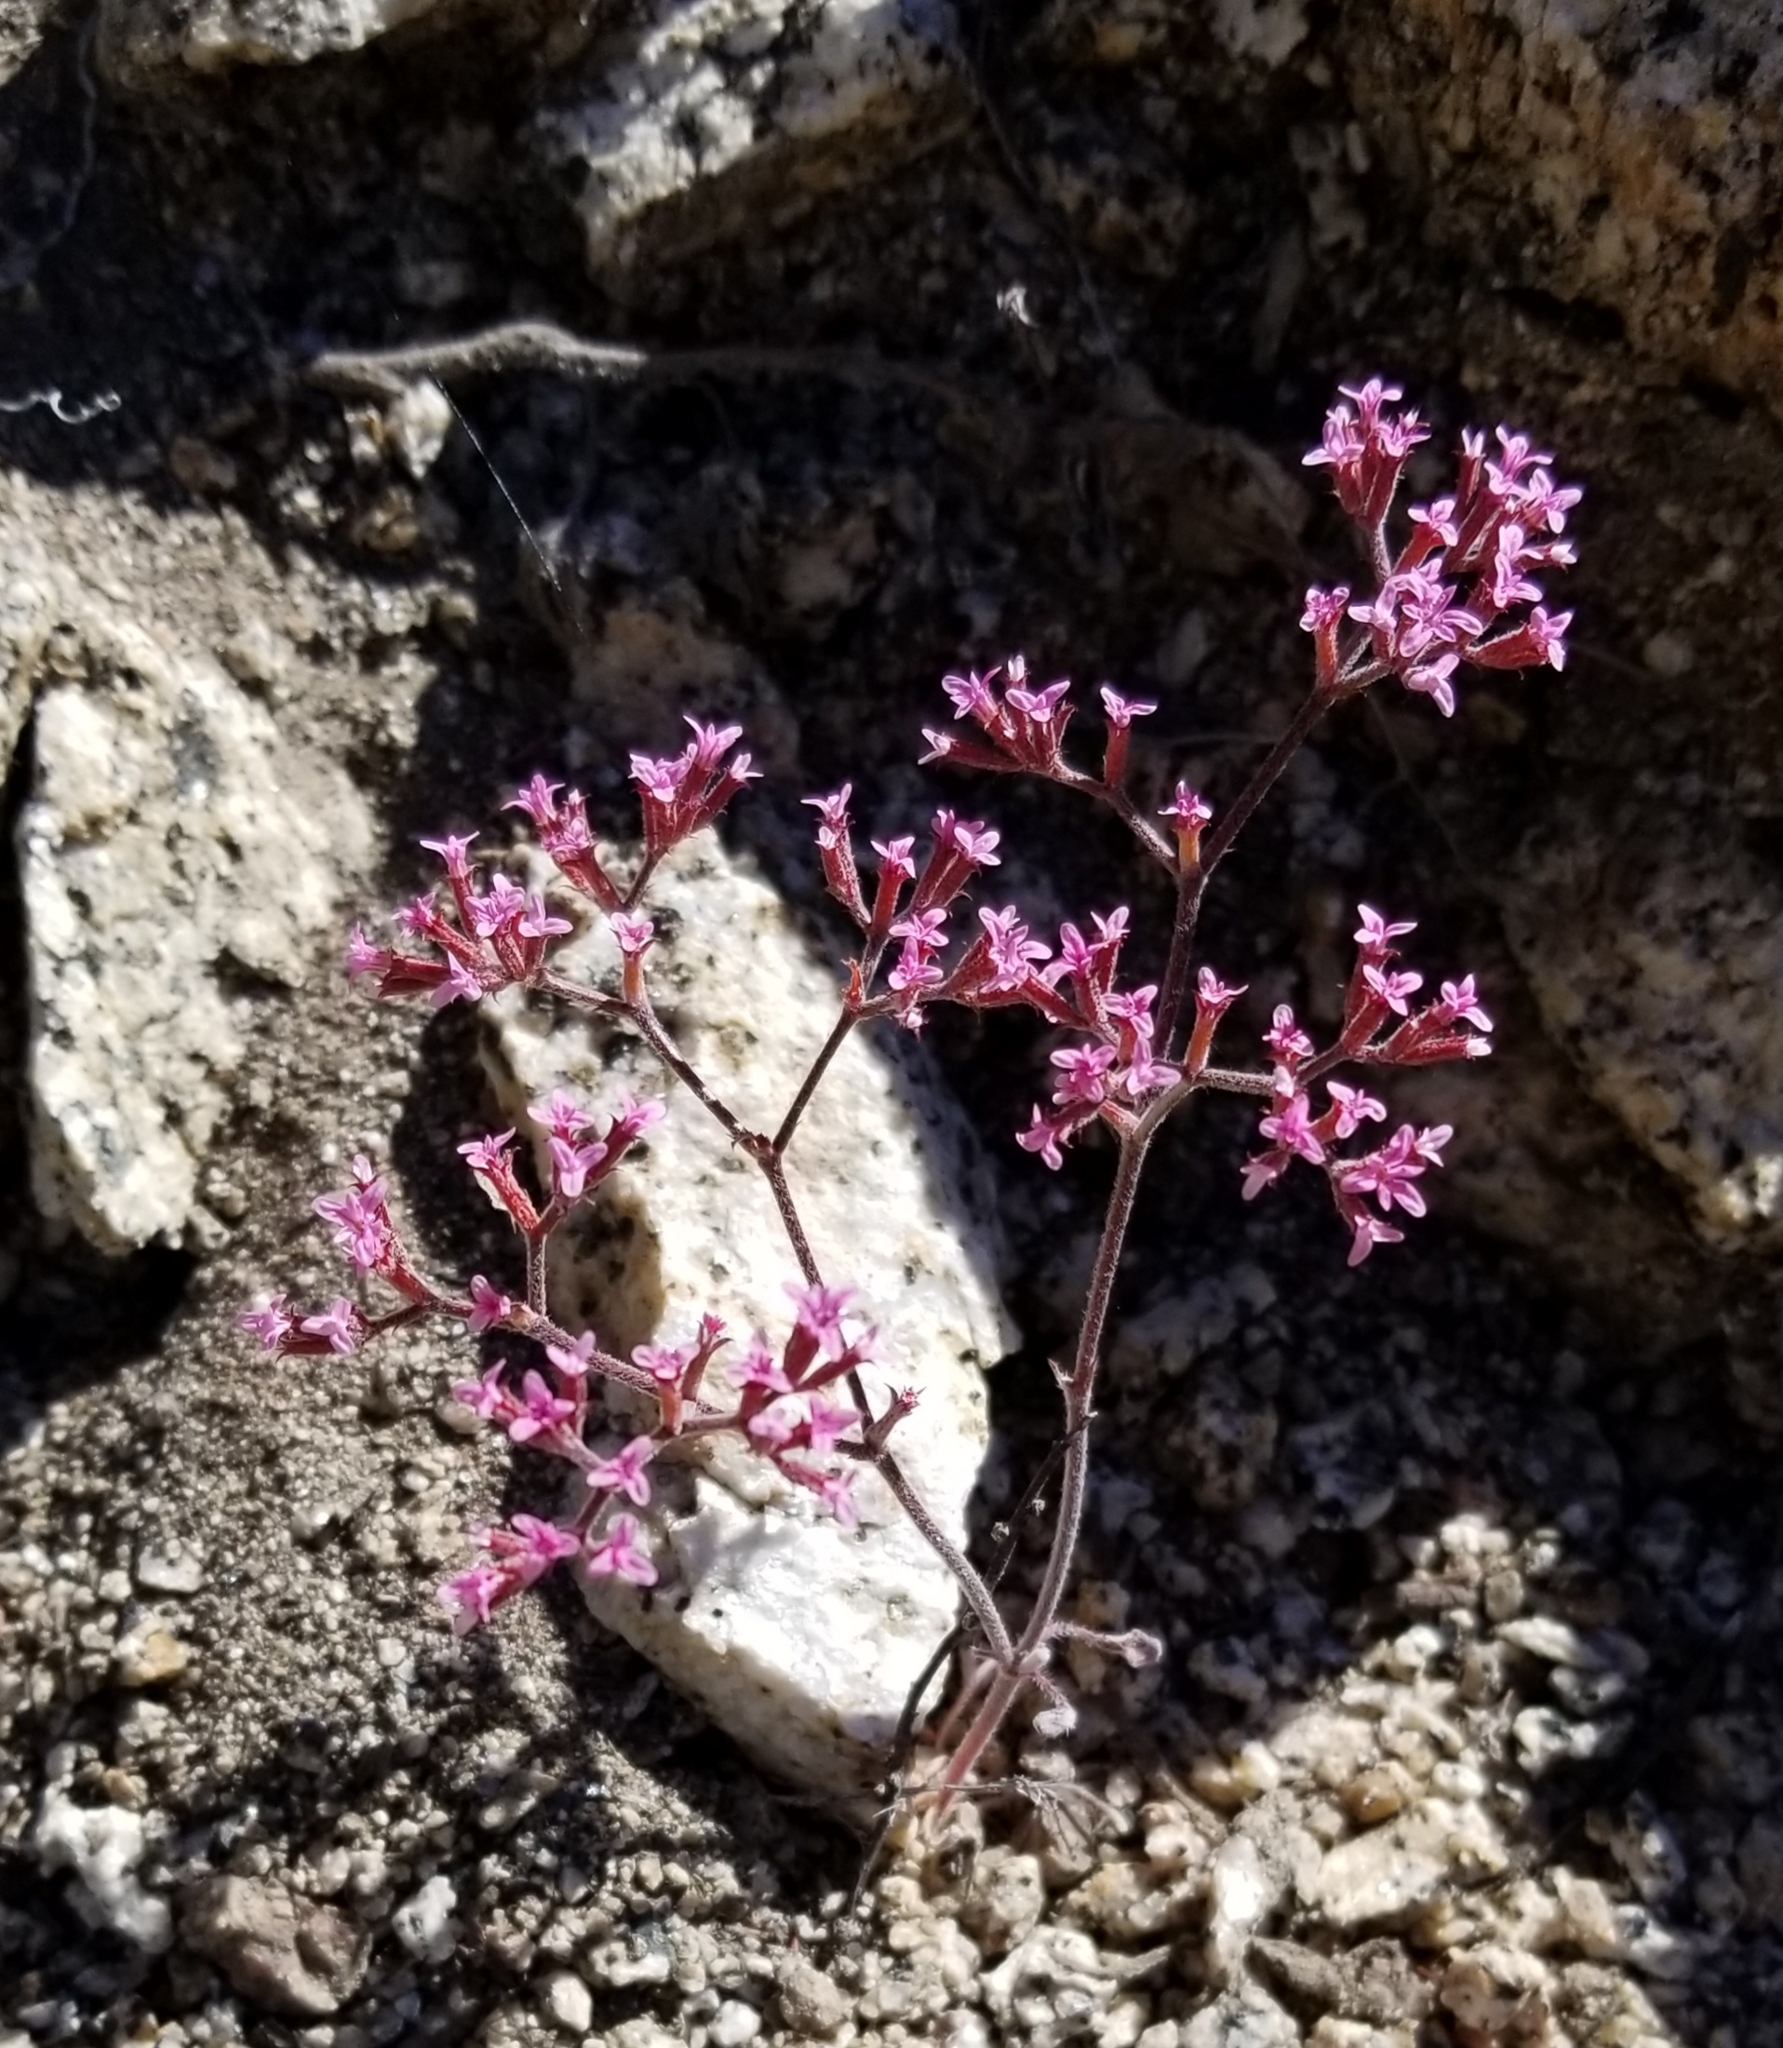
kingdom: Plantae
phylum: Tracheophyta
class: Magnoliopsida
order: Caryophyllales
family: Polygonaceae
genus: Chorizanthe
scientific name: Chorizanthe leptotheca
